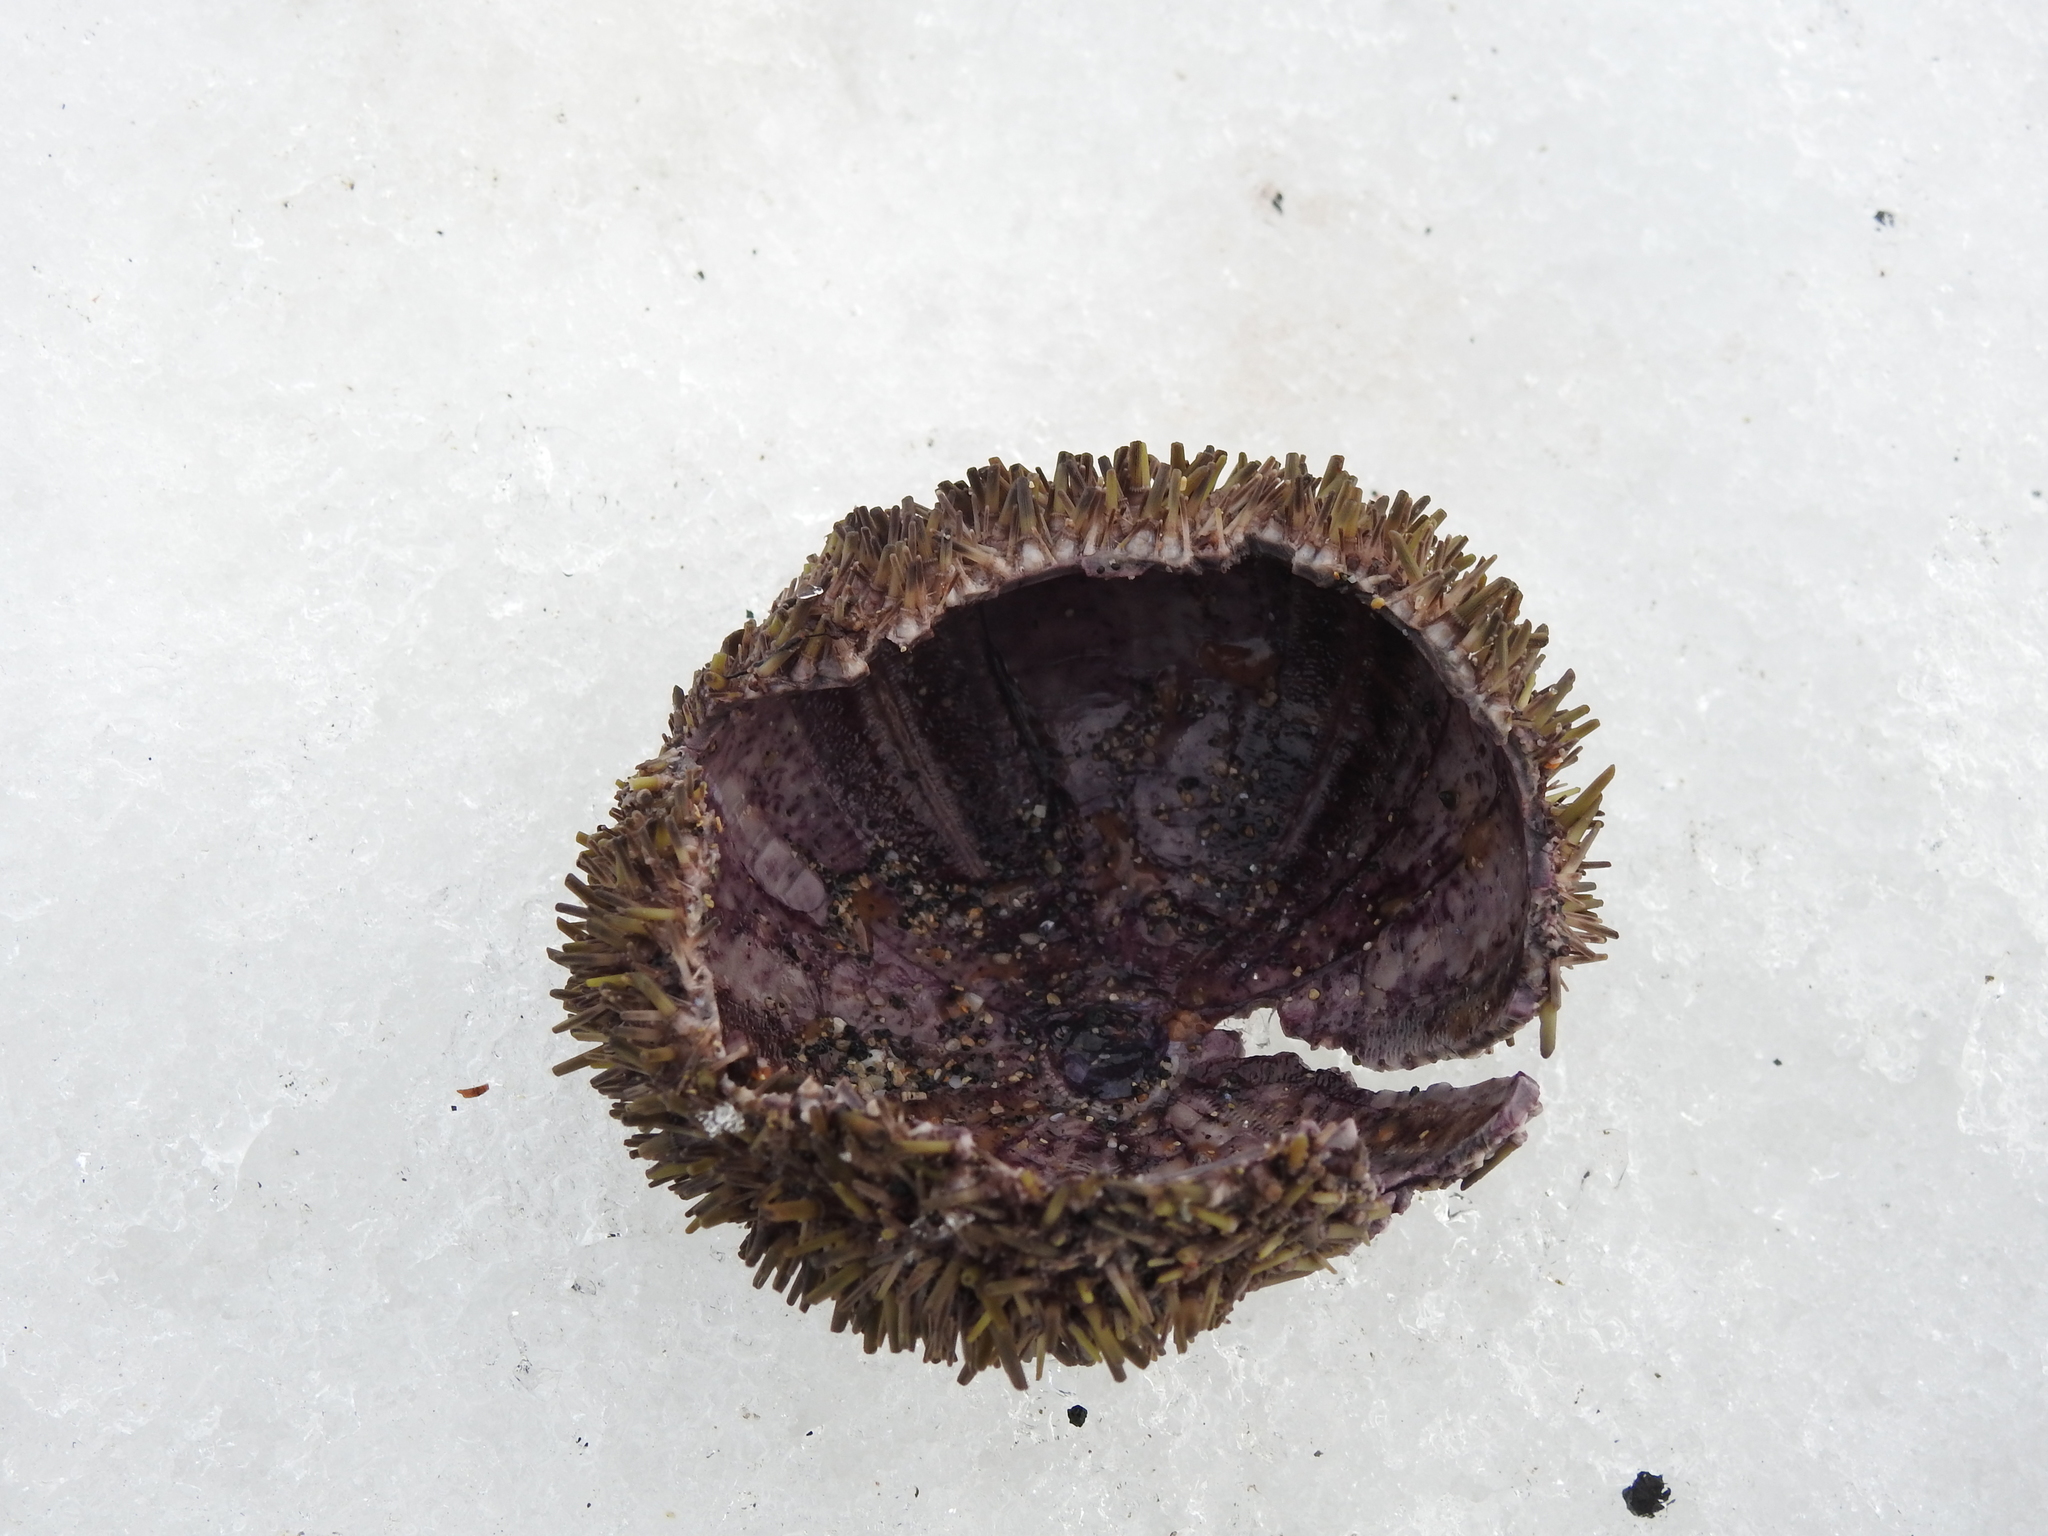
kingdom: Animalia
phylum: Echinodermata
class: Echinoidea
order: Camarodonta
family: Strongylocentrotidae
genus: Strongylocentrotus
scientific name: Strongylocentrotus droebachiensis
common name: Northern sea urchin
